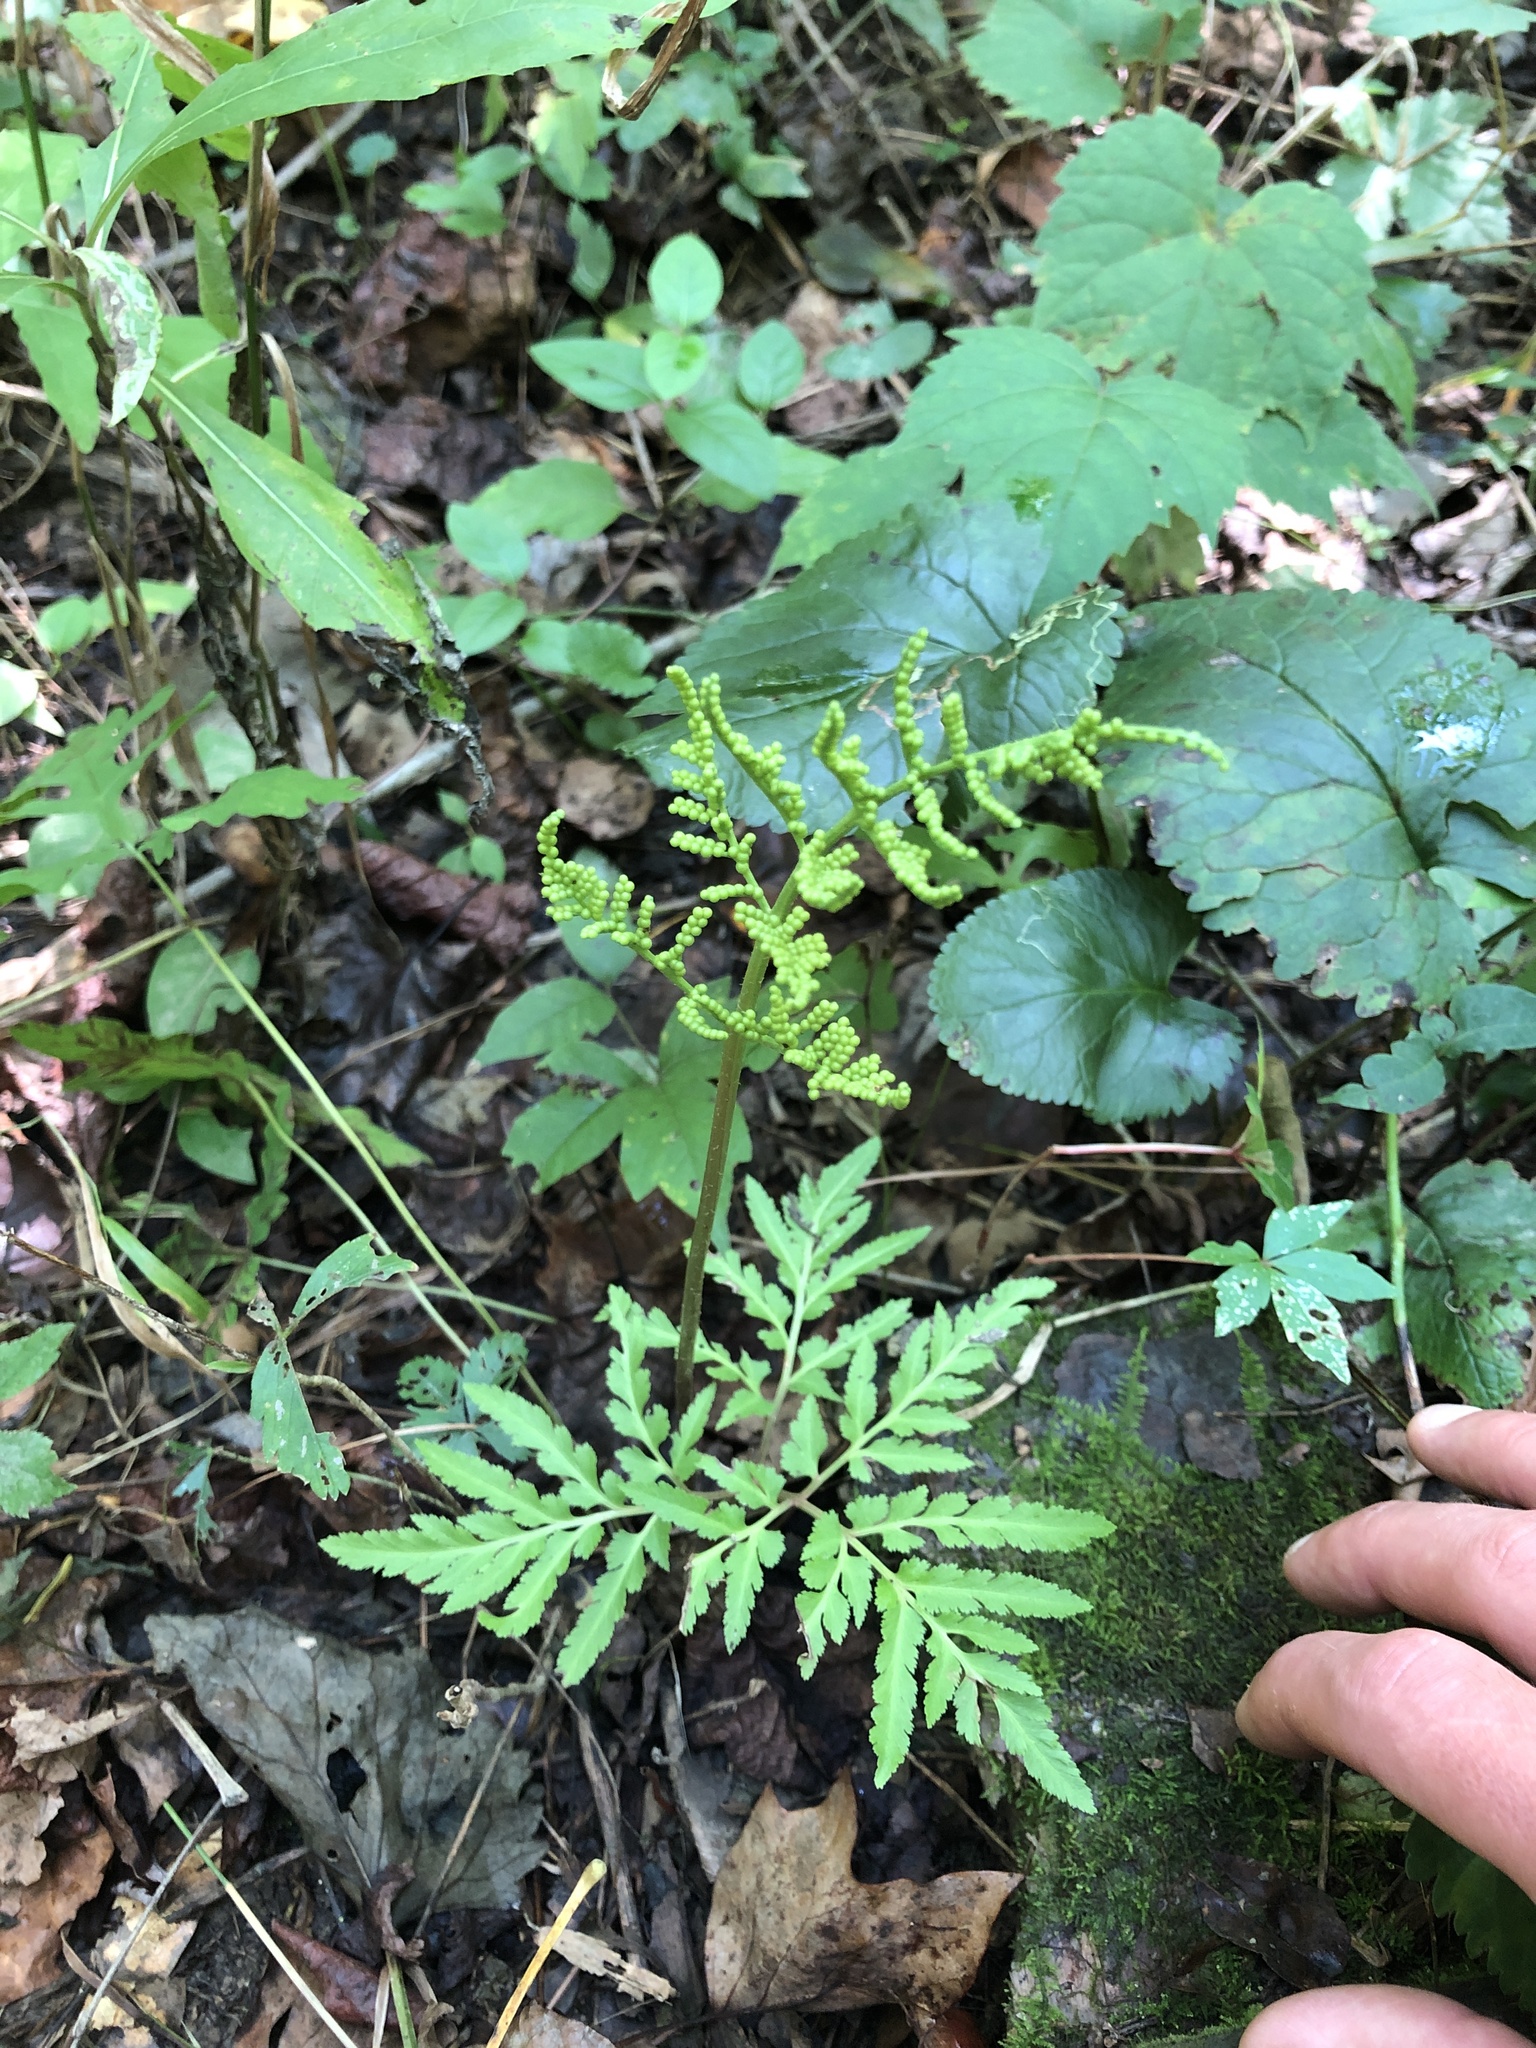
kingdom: Plantae
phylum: Tracheophyta
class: Polypodiopsida
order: Ophioglossales
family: Ophioglossaceae
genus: Sceptridium
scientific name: Sceptridium dissectum
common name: Cut-leaved grapefern
